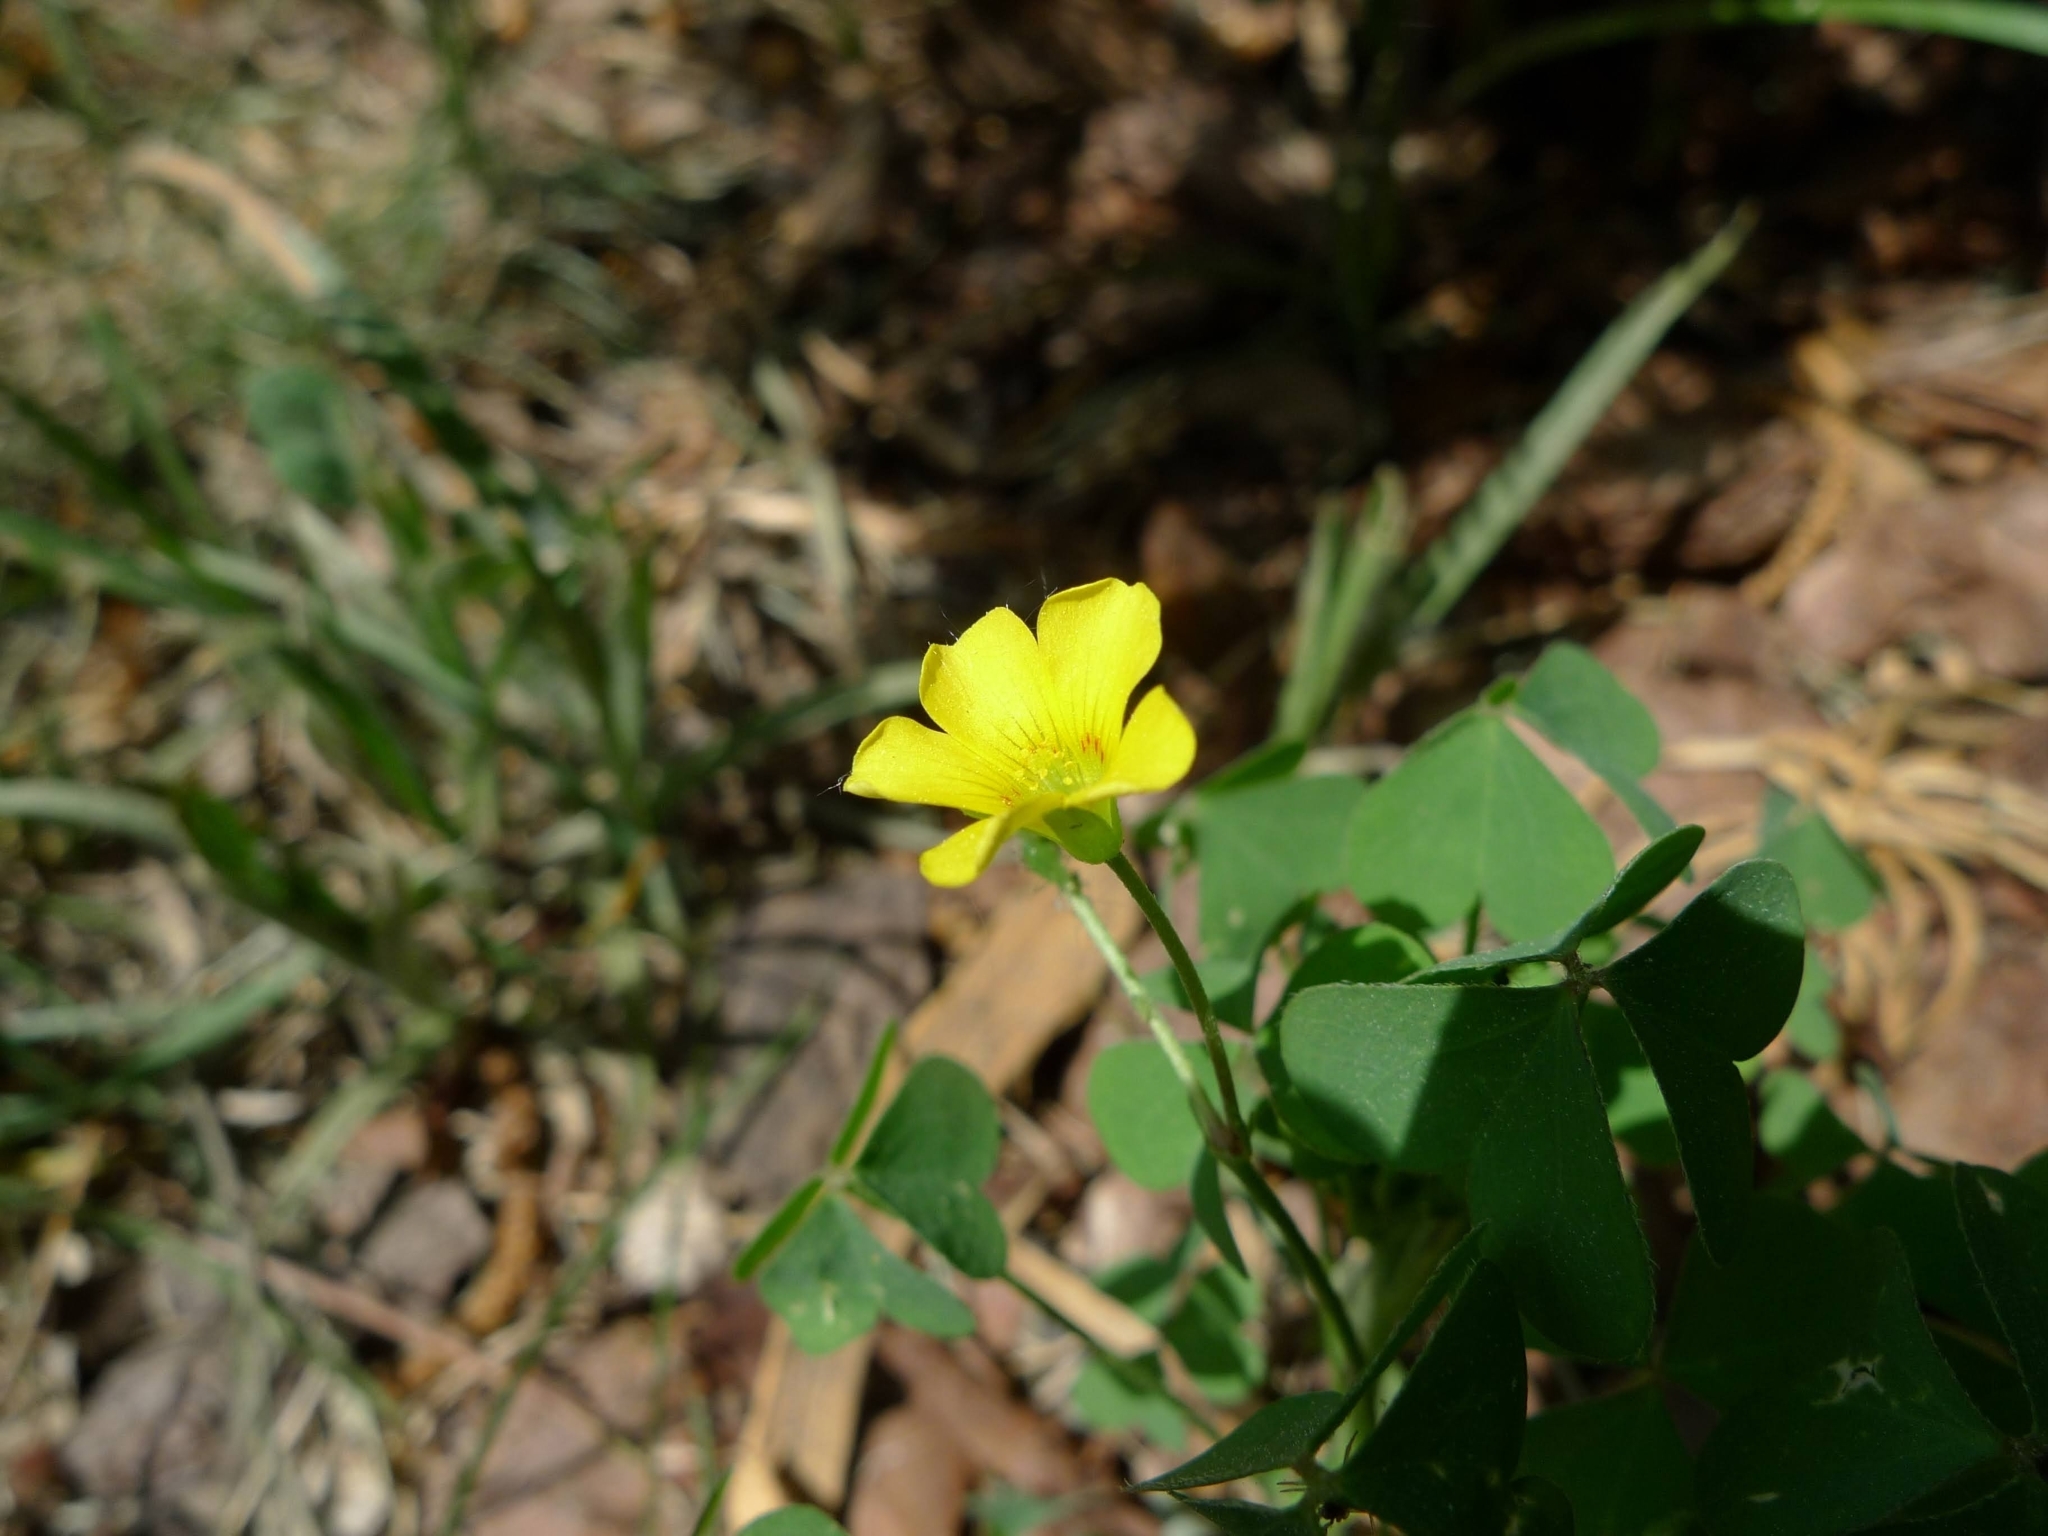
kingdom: Plantae
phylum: Tracheophyta
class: Magnoliopsida
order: Oxalidales
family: Oxalidaceae
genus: Oxalis
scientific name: Oxalis stricta
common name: Upright yellow-sorrel
